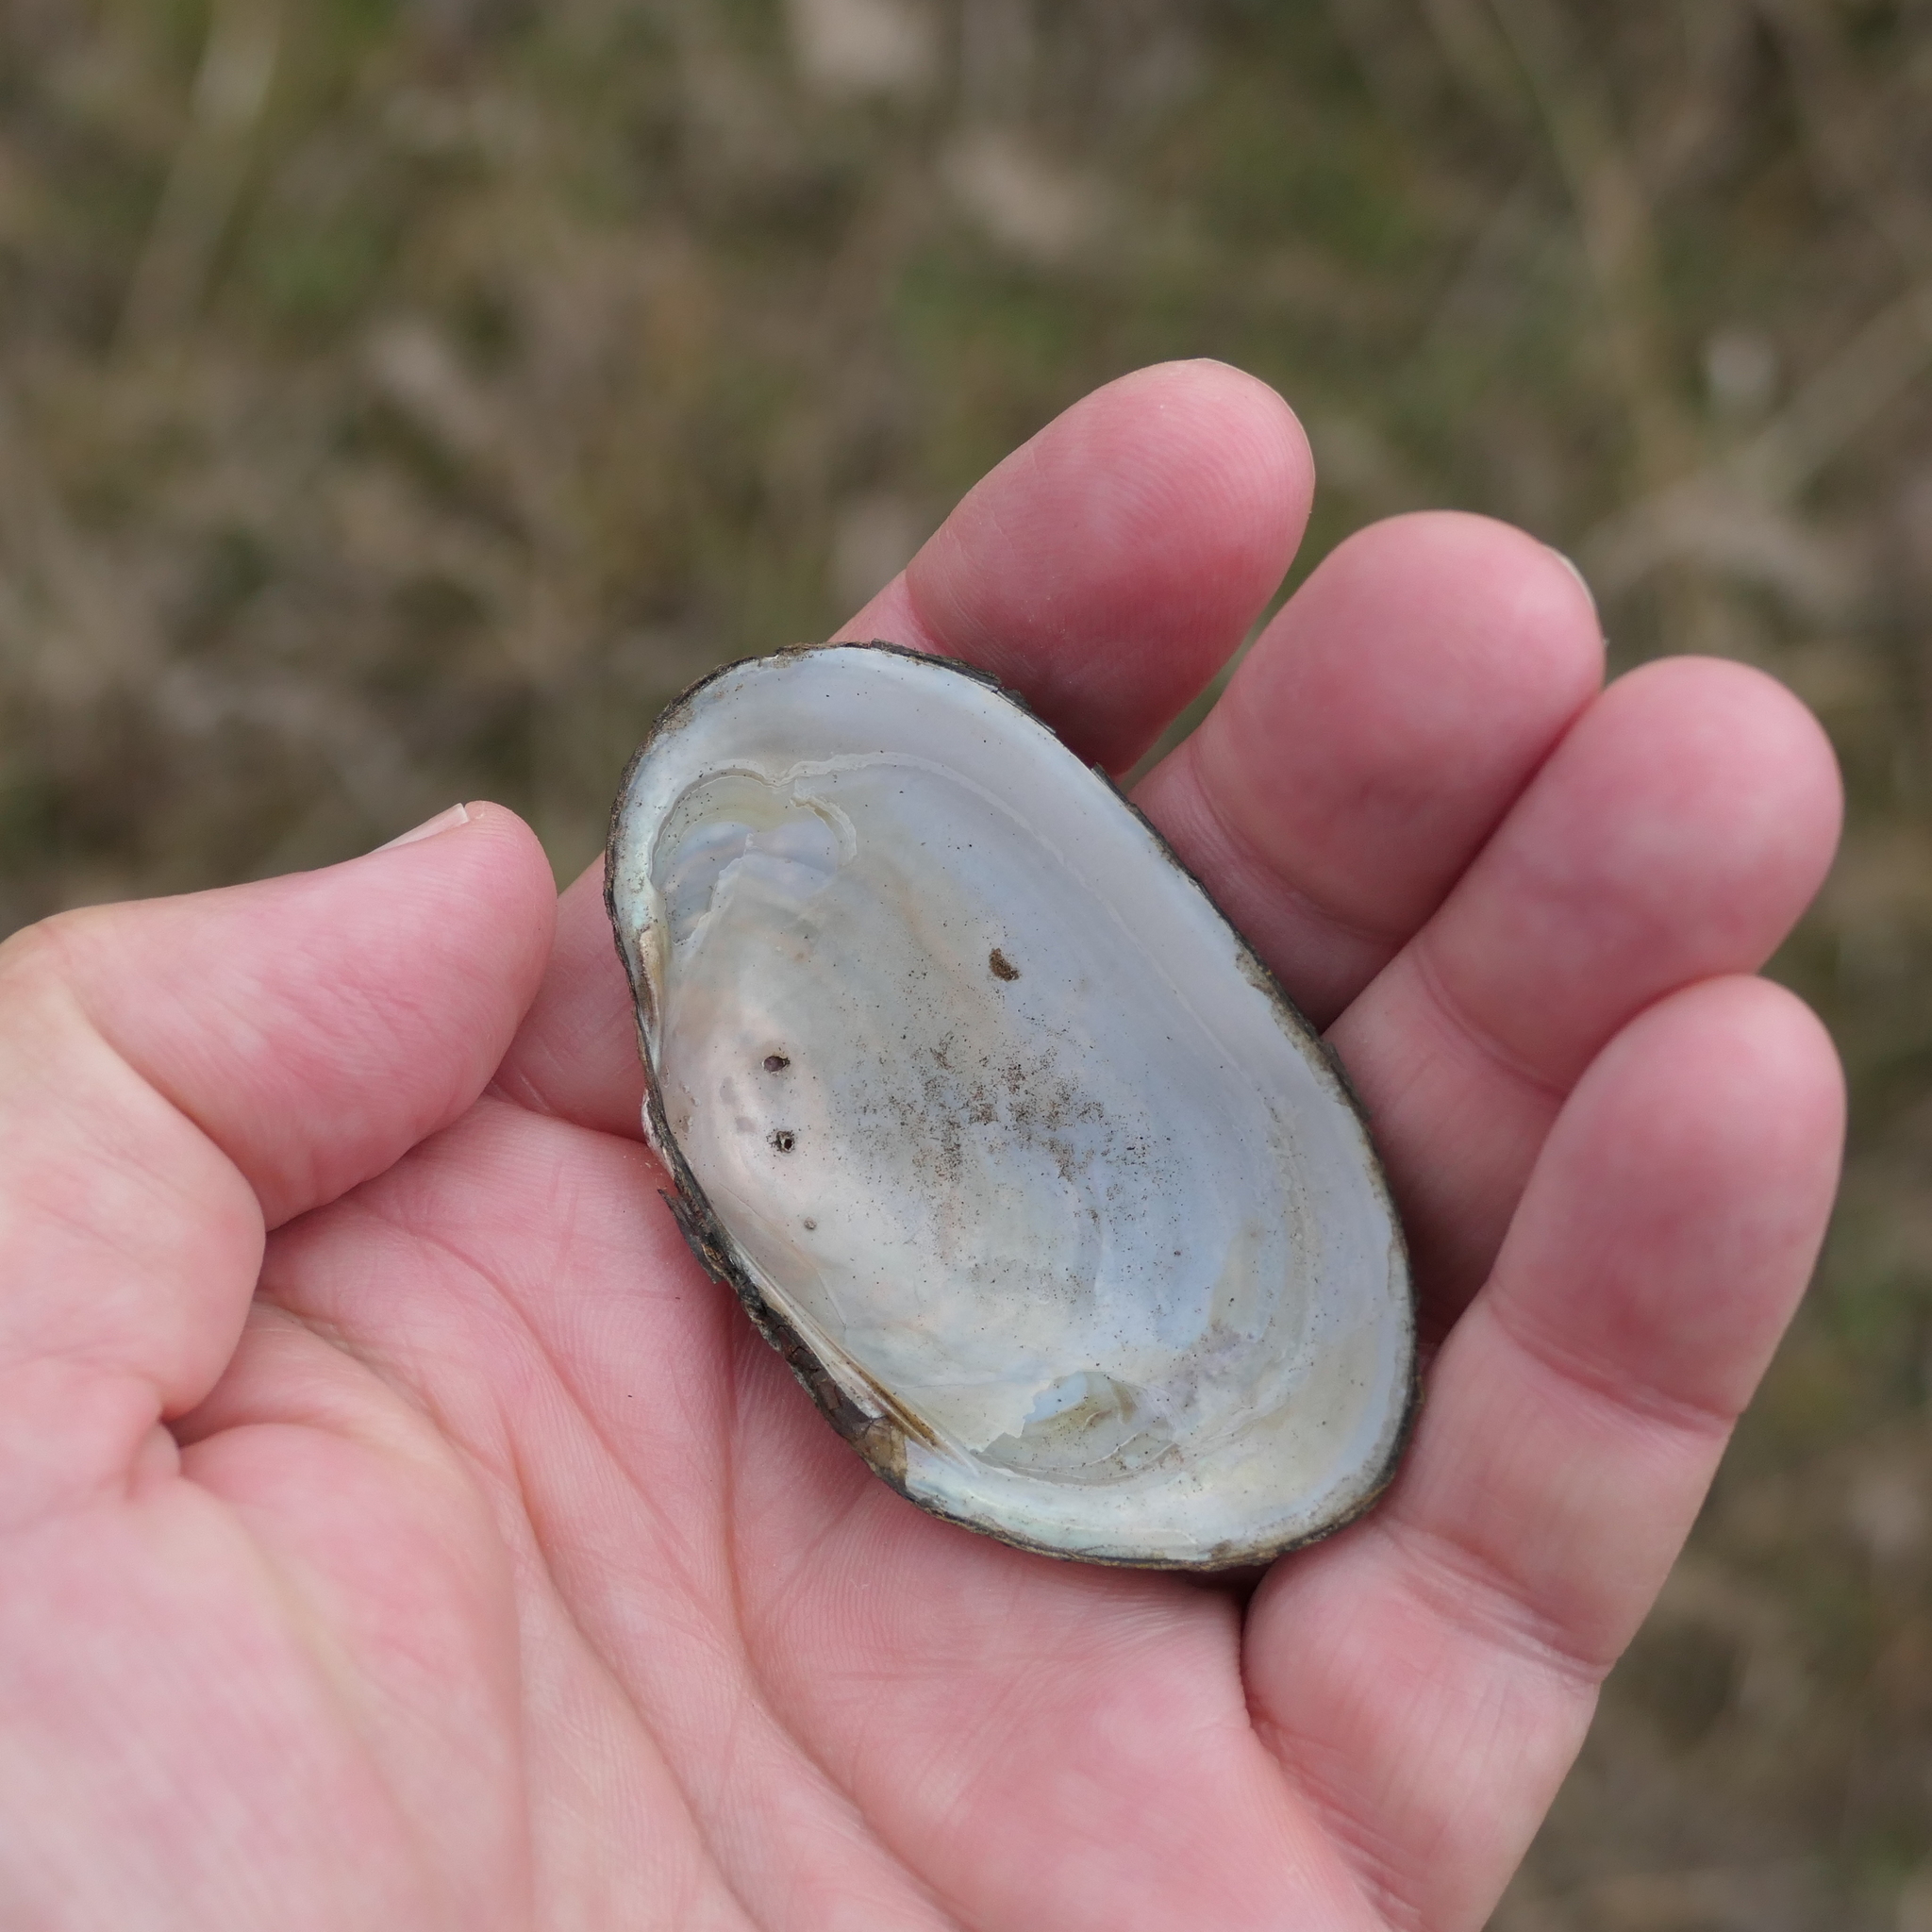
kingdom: Animalia
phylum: Mollusca
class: Bivalvia
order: Unionida
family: Hyriidae
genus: Velesunio
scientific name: Velesunio ambiguus
